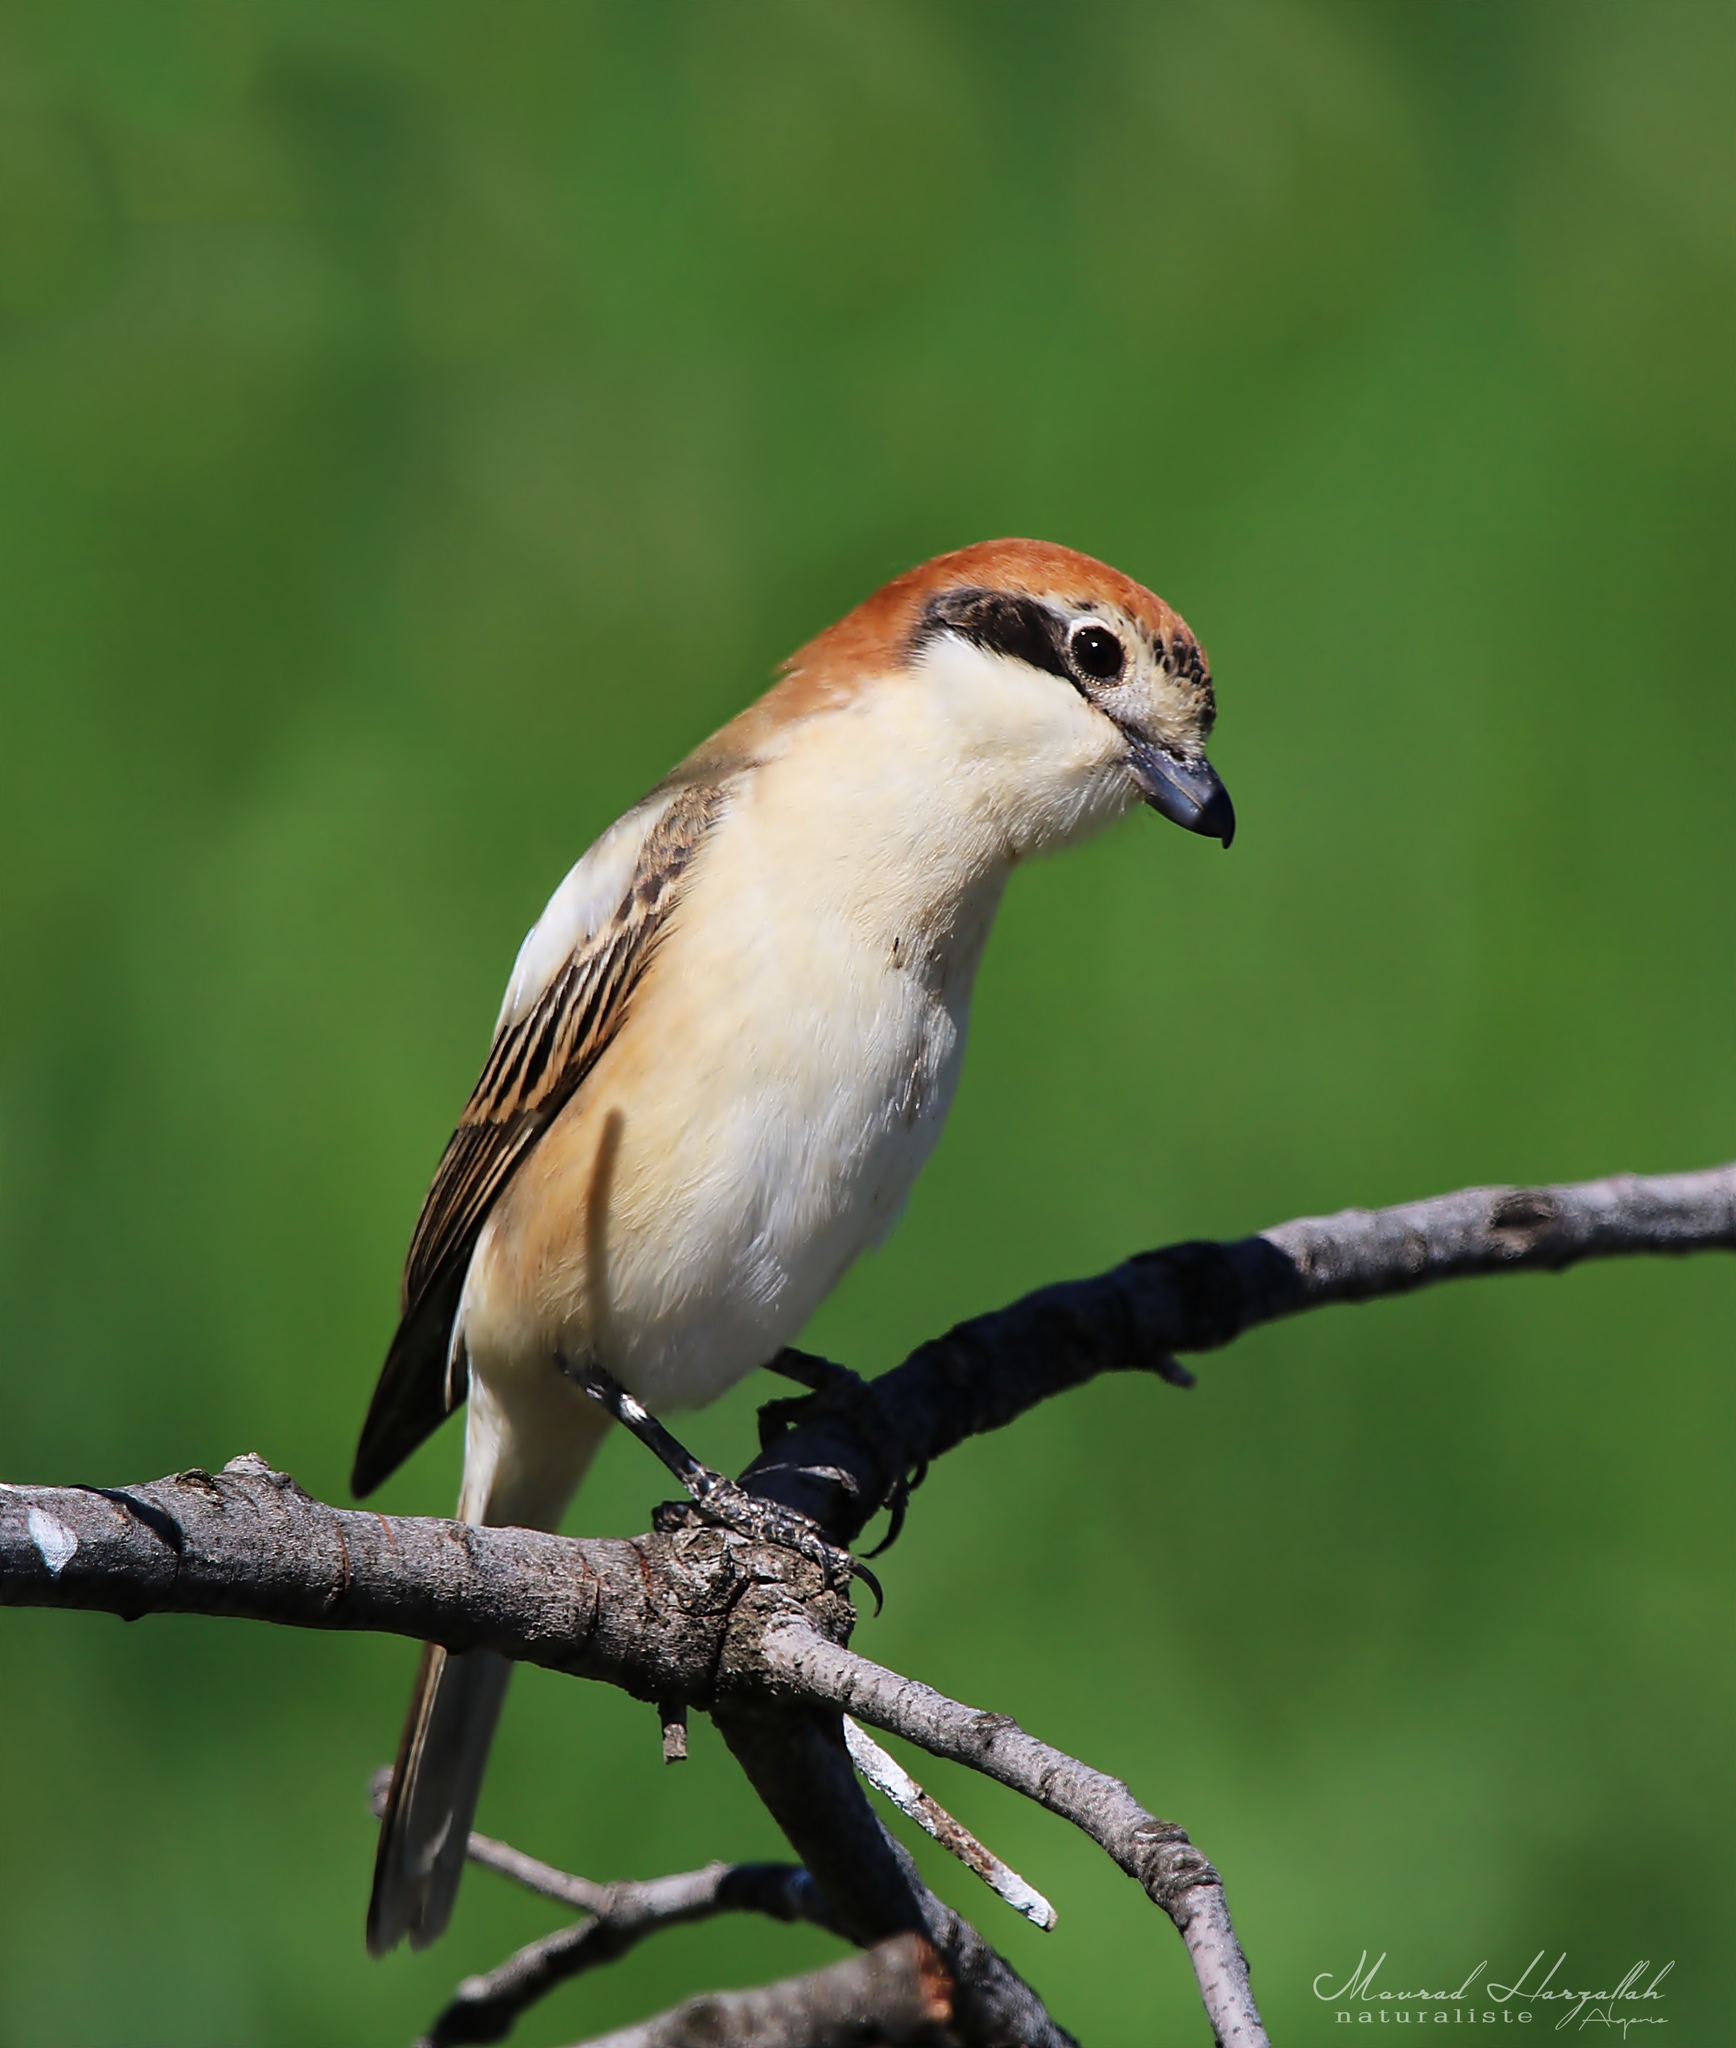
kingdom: Animalia
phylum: Chordata
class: Aves
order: Passeriformes
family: Laniidae
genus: Lanius
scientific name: Lanius senator
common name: Woodchat shrike
